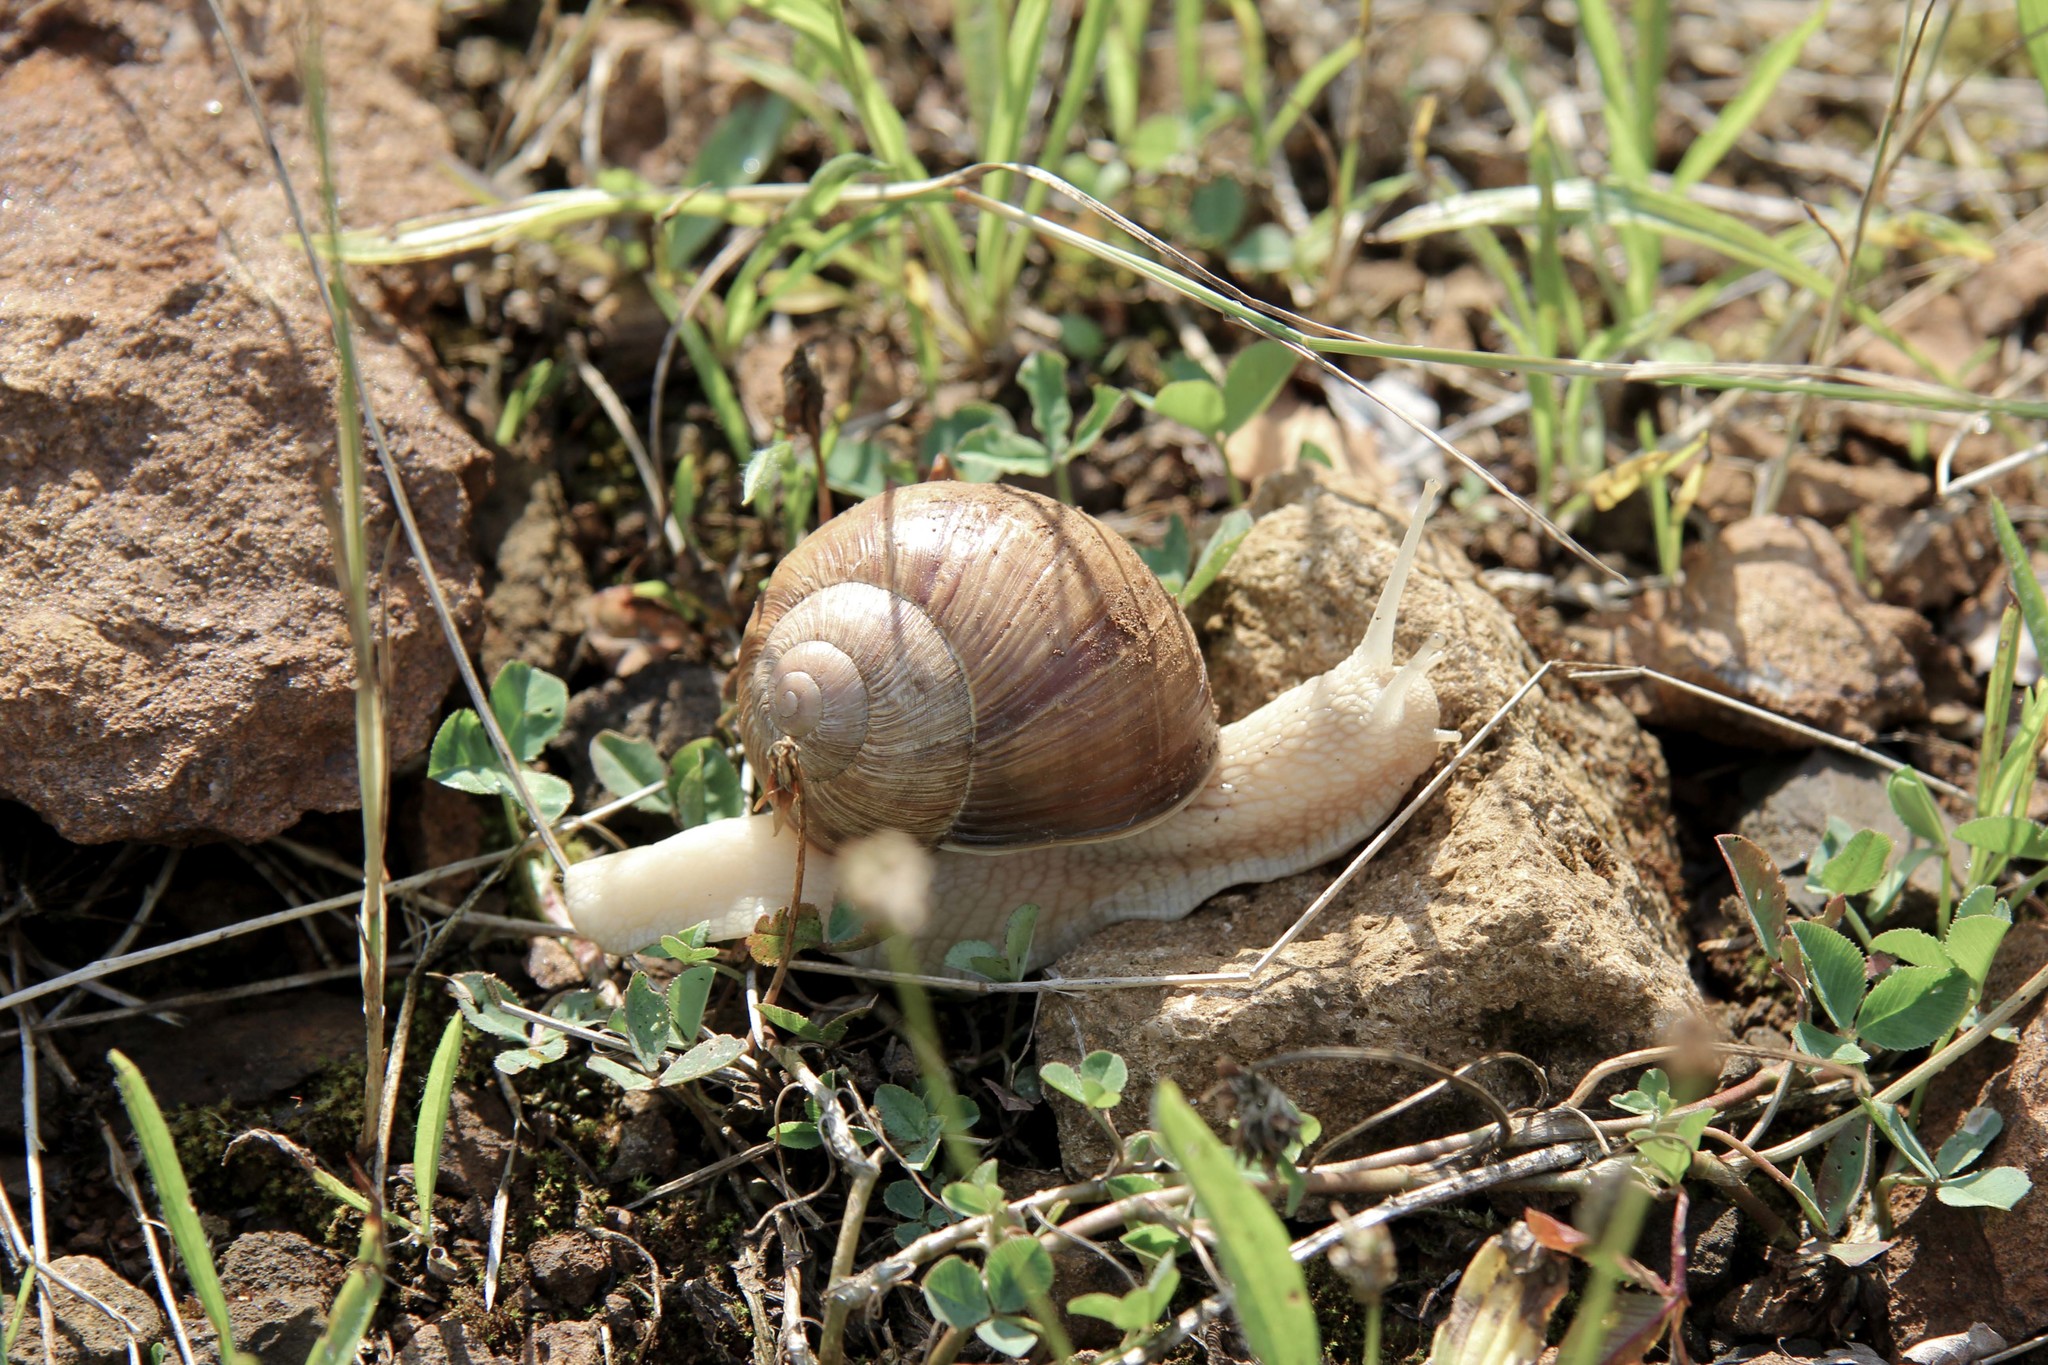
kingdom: Animalia
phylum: Mollusca
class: Gastropoda
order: Stylommatophora
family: Helicidae
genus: Helix
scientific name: Helix pomatia
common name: Roman snail
